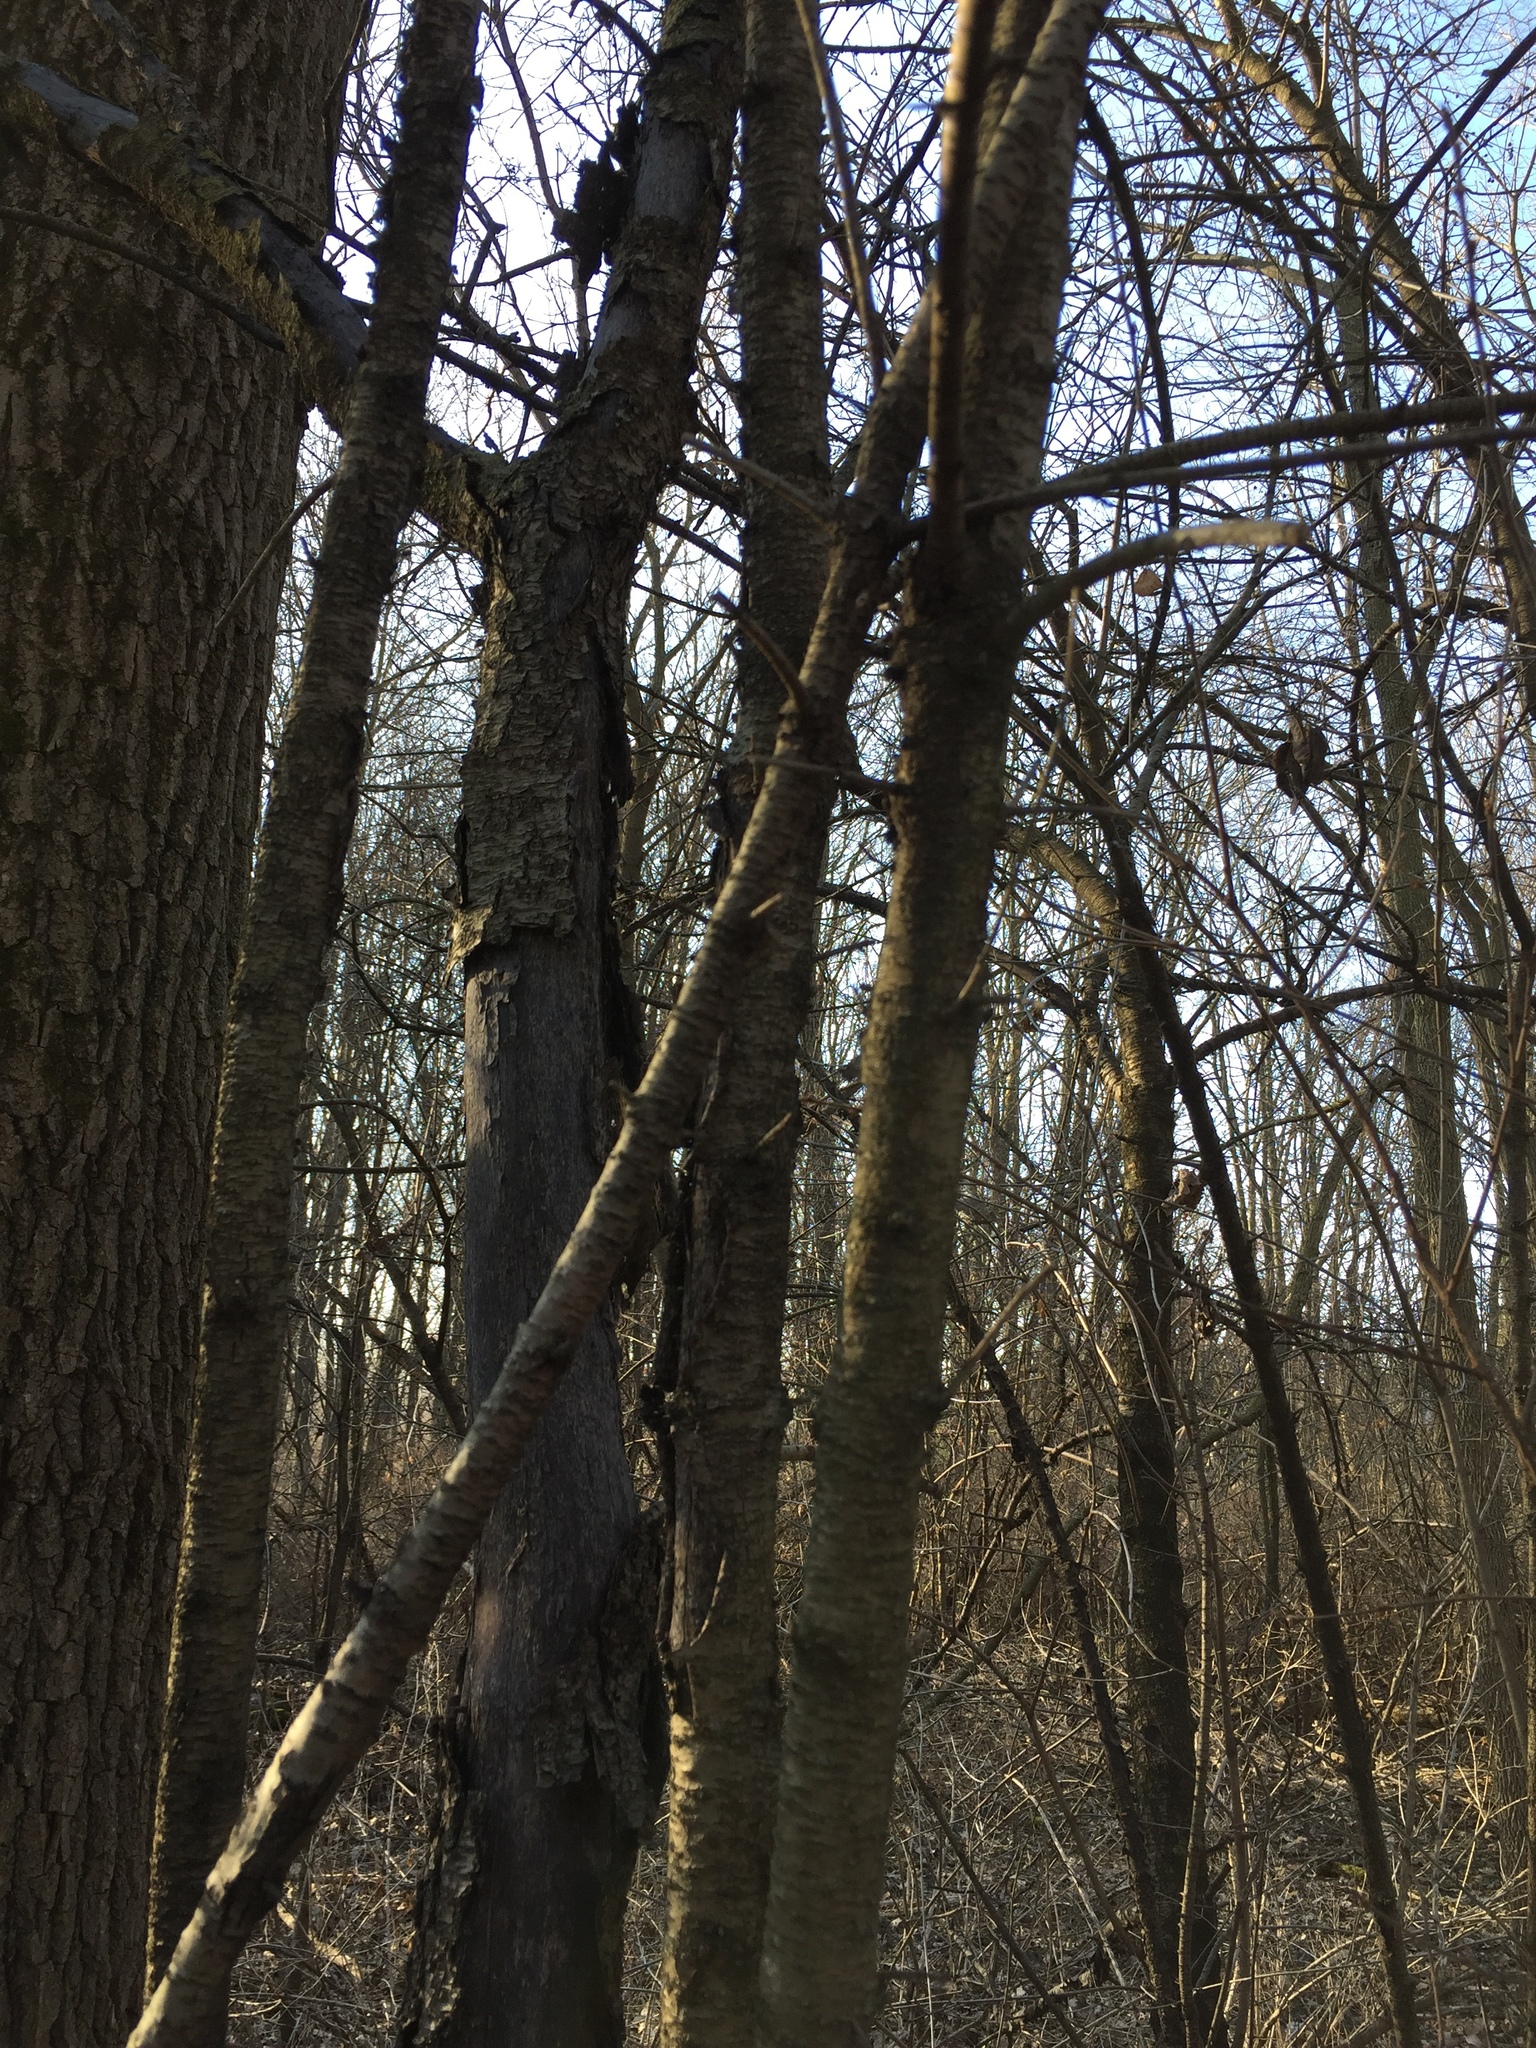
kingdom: Plantae
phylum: Tracheophyta
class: Magnoliopsida
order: Rosales
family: Rhamnaceae
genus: Rhamnus
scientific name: Rhamnus cathartica
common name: Common buckthorn
